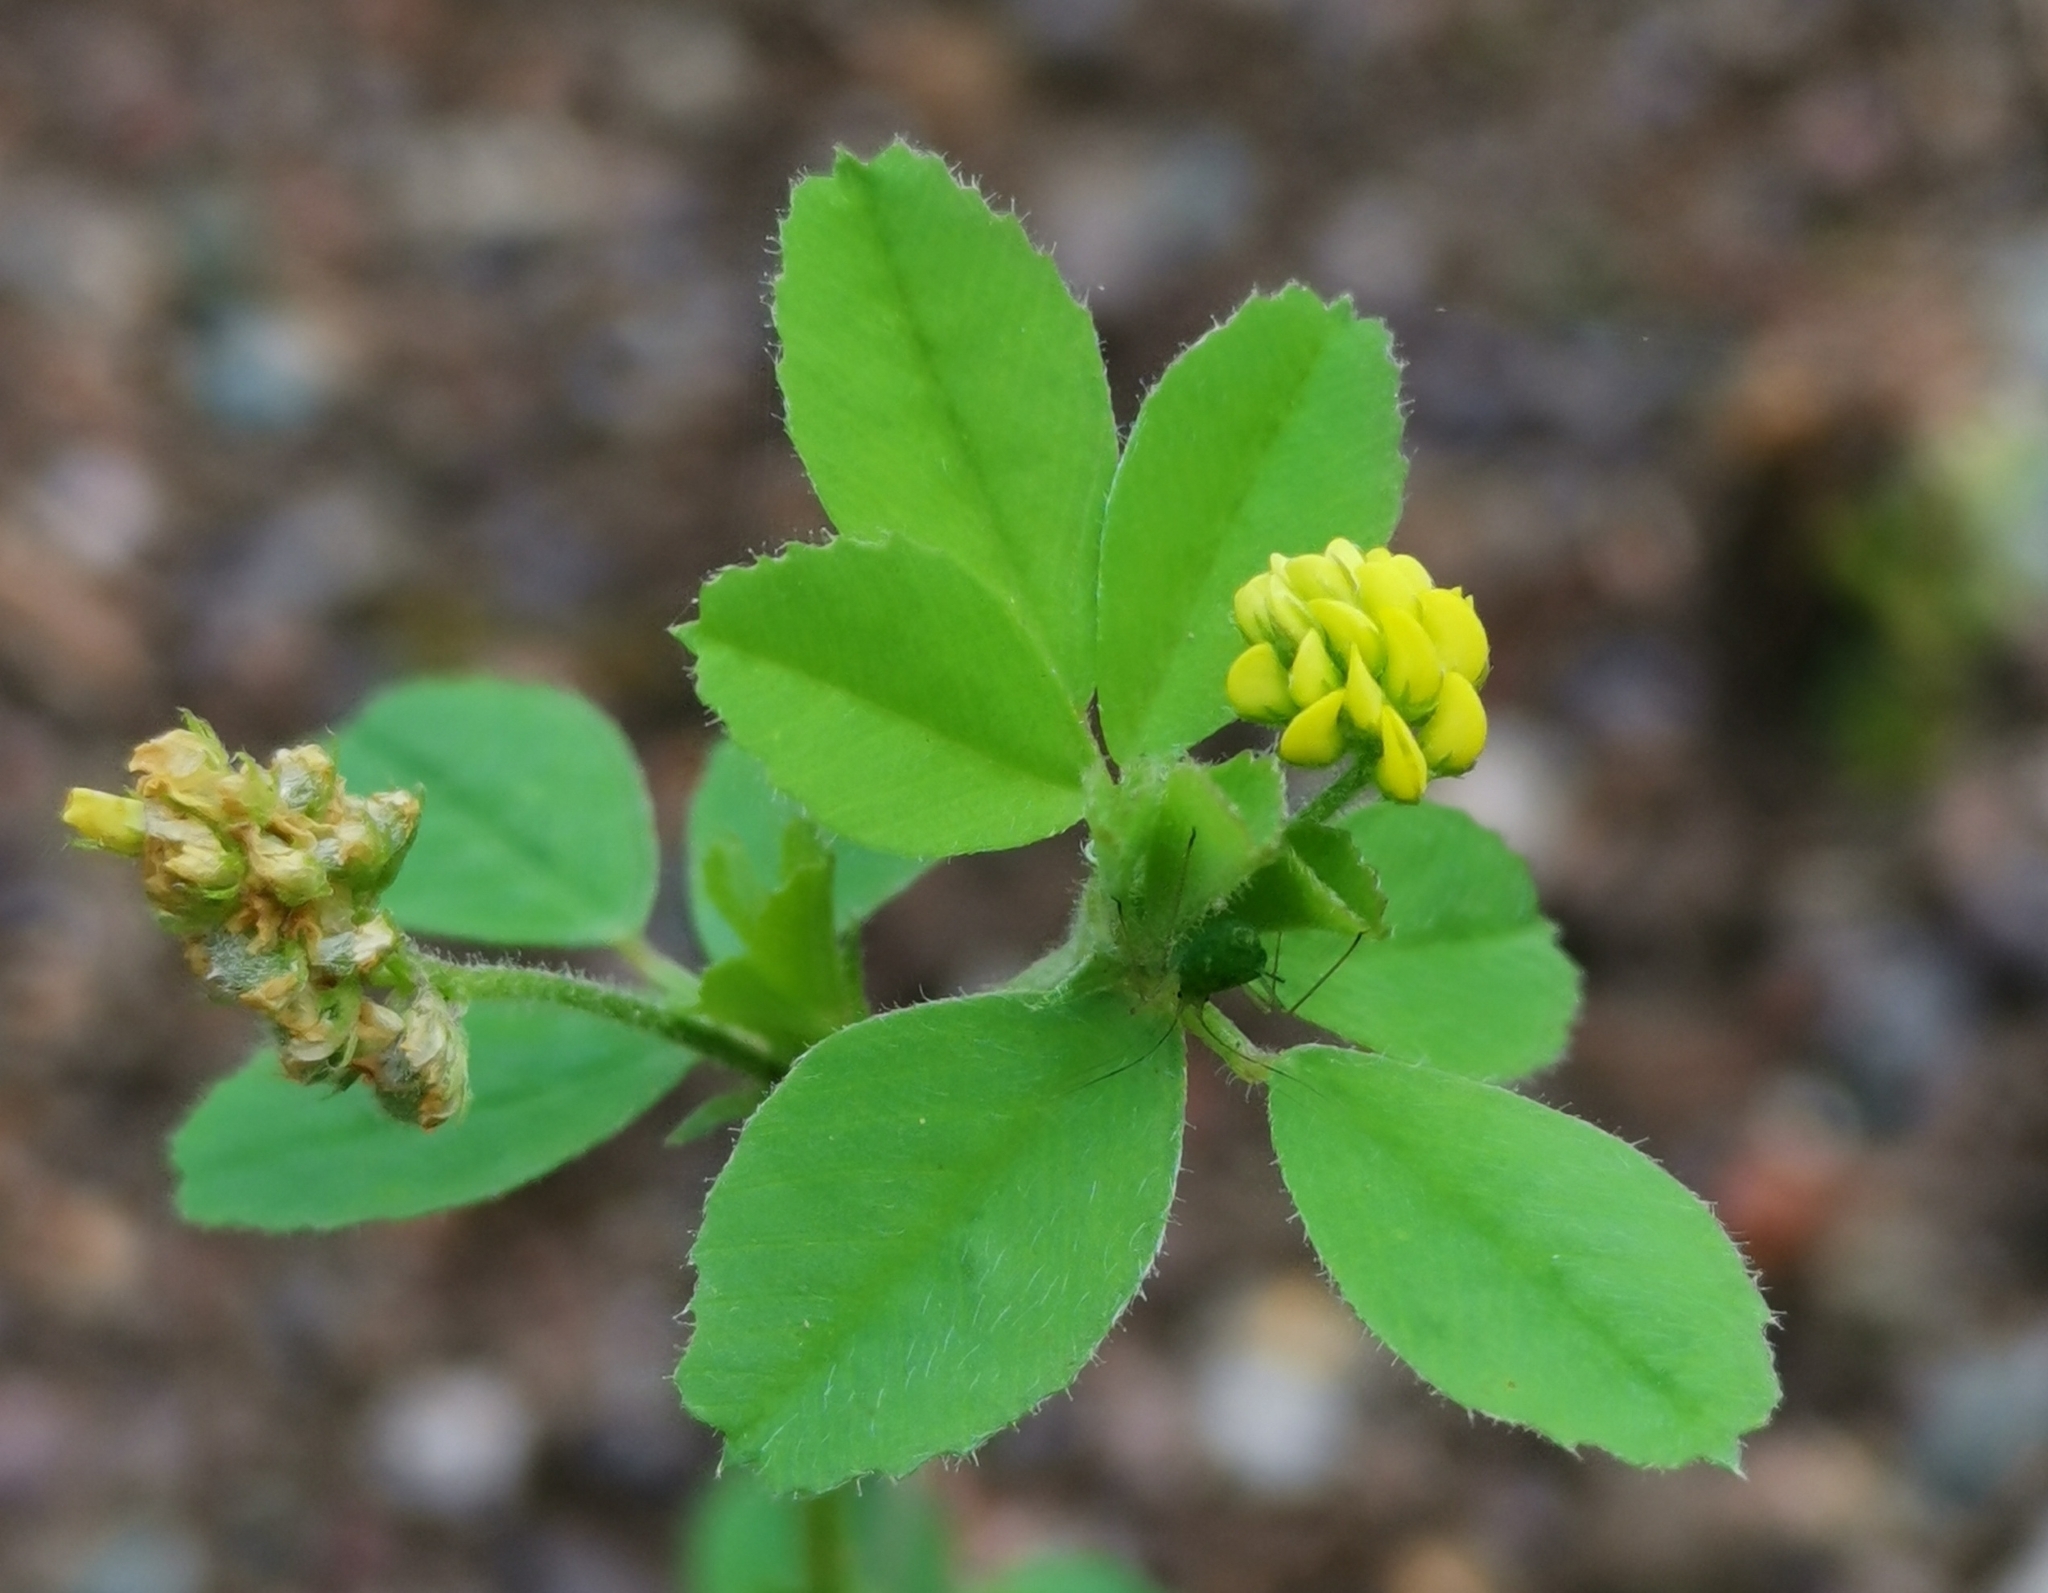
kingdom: Plantae
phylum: Tracheophyta
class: Magnoliopsida
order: Fabales
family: Fabaceae
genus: Medicago
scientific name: Medicago lupulina
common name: Black medick
